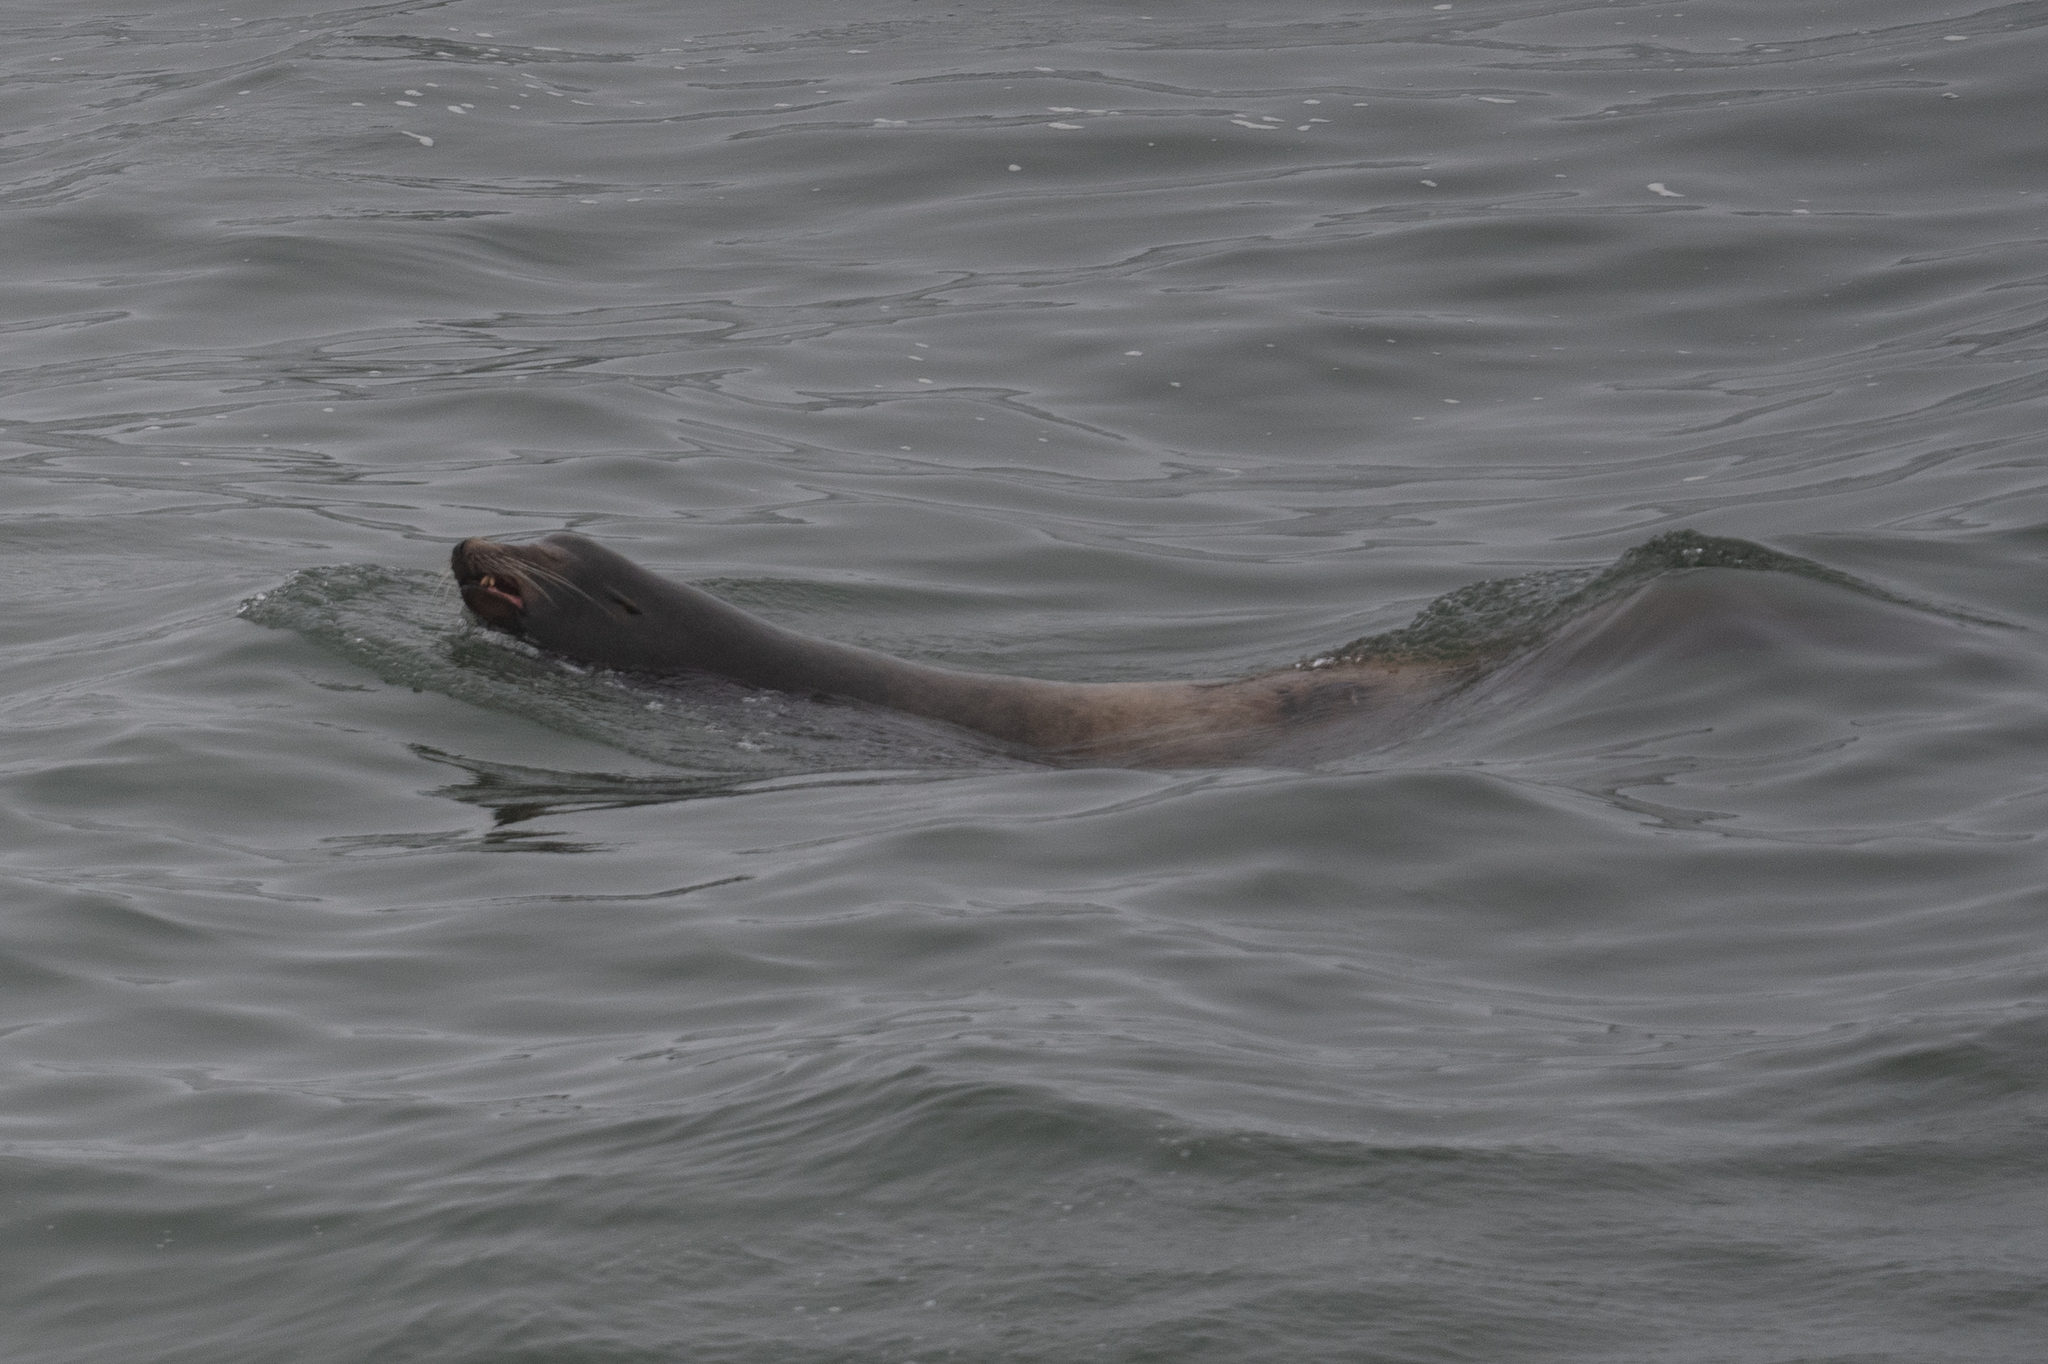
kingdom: Animalia
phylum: Chordata
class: Mammalia
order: Carnivora
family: Otariidae
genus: Zalophus
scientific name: Zalophus californianus
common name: California sea lion
